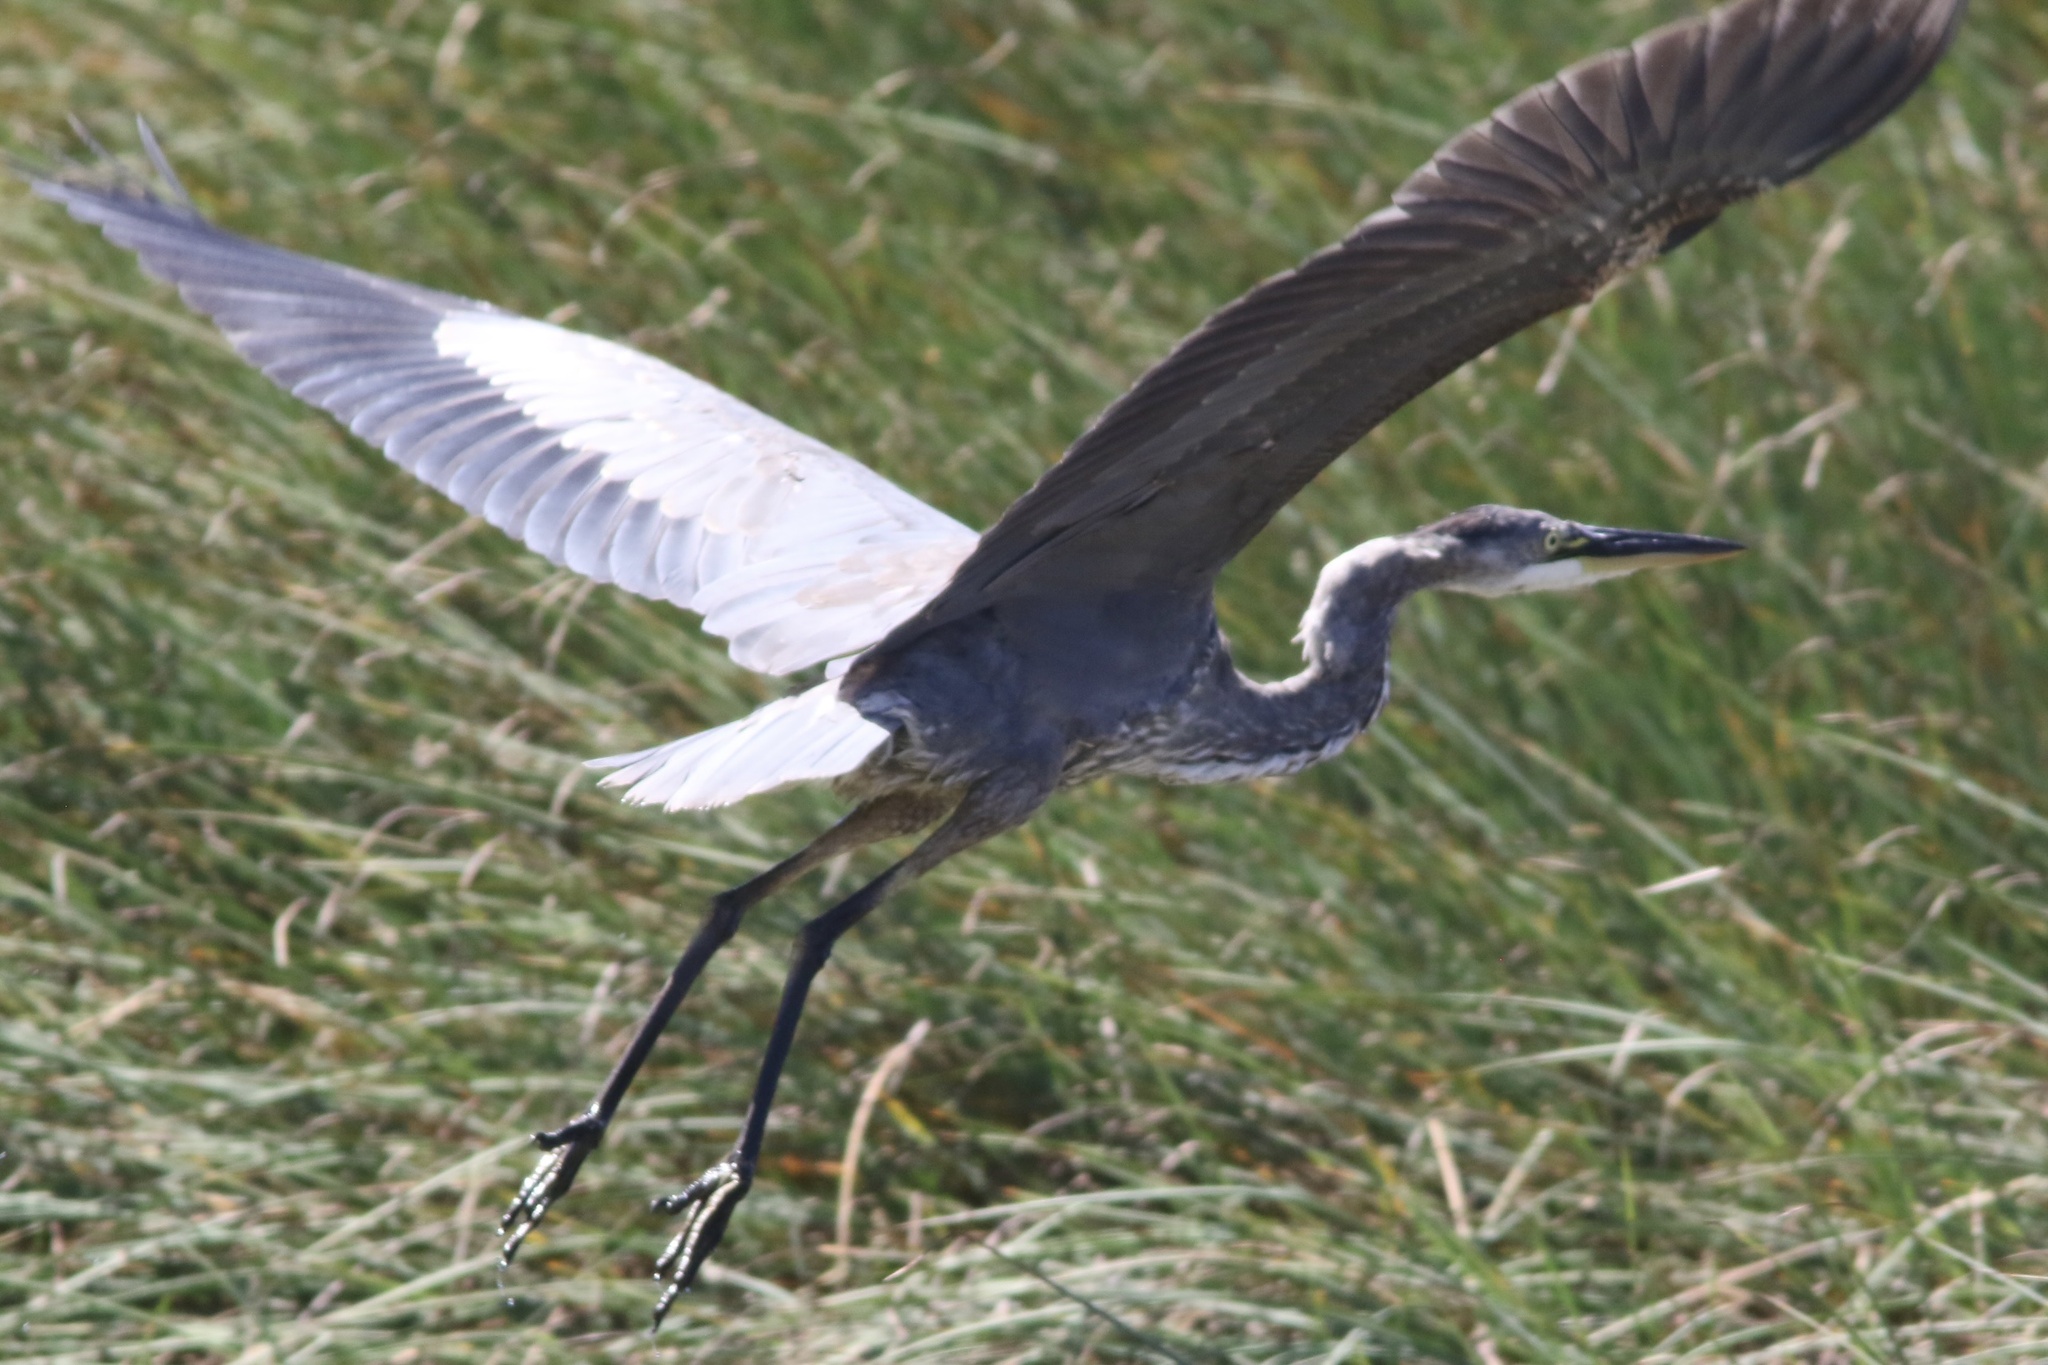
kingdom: Animalia
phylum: Chordata
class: Aves
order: Pelecaniformes
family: Ardeidae
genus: Ardea
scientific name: Ardea herodias
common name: Great blue heron
